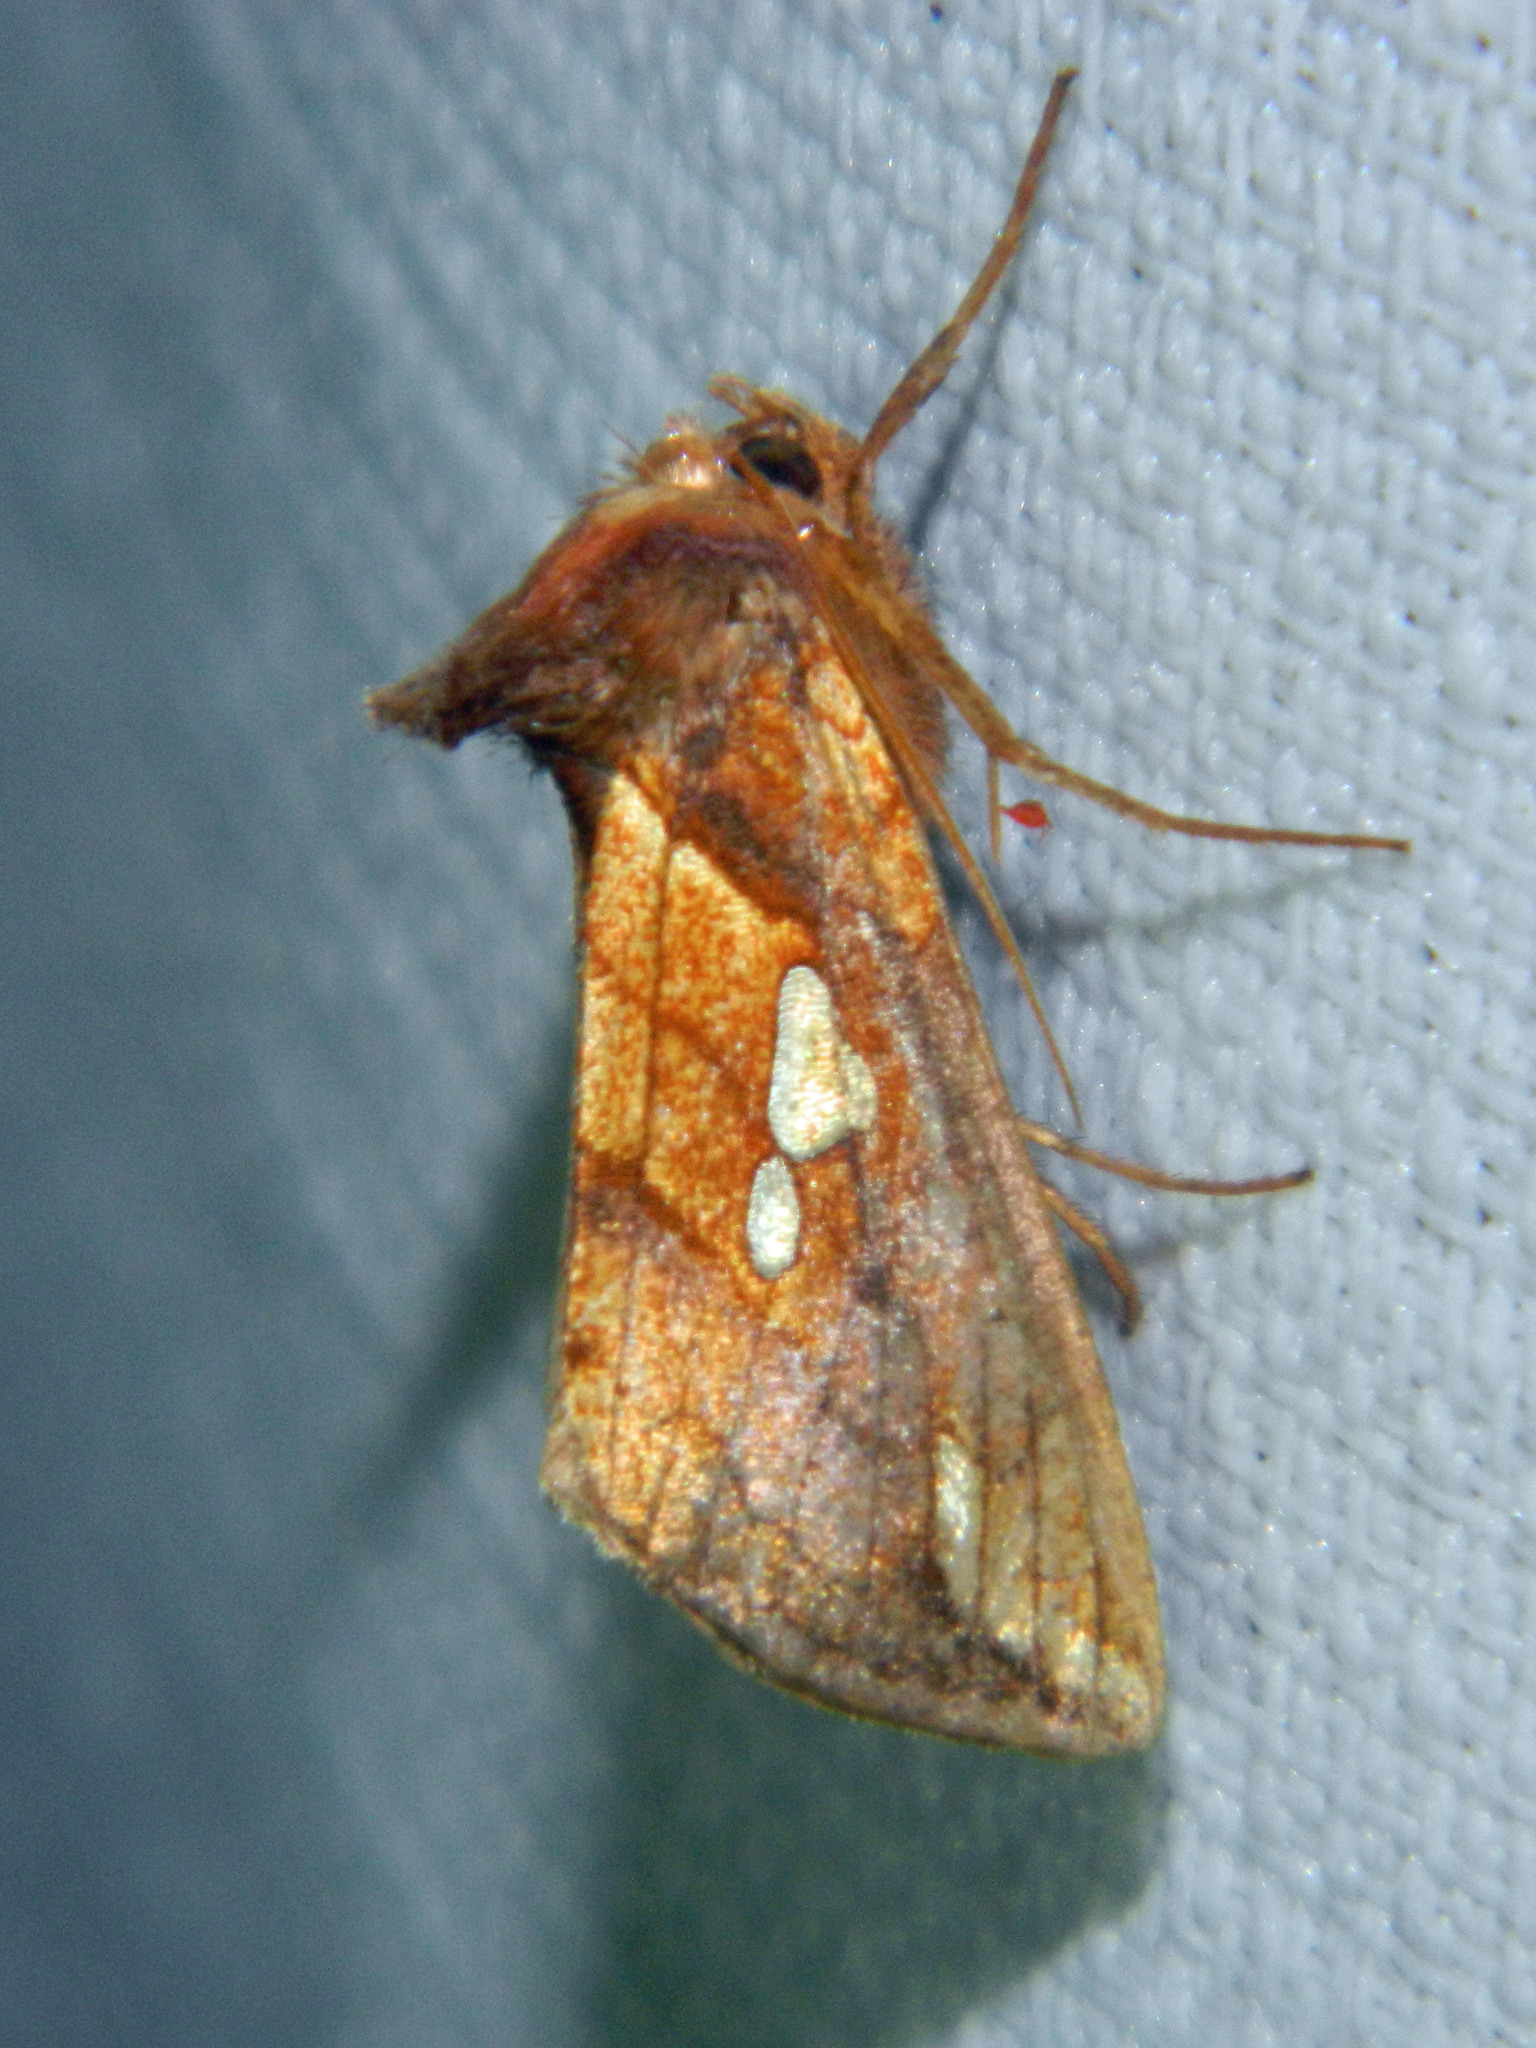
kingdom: Animalia
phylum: Arthropoda
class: Insecta
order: Lepidoptera
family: Noctuidae
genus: Plusia
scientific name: Plusia putnami
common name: Lempke's gold spot
